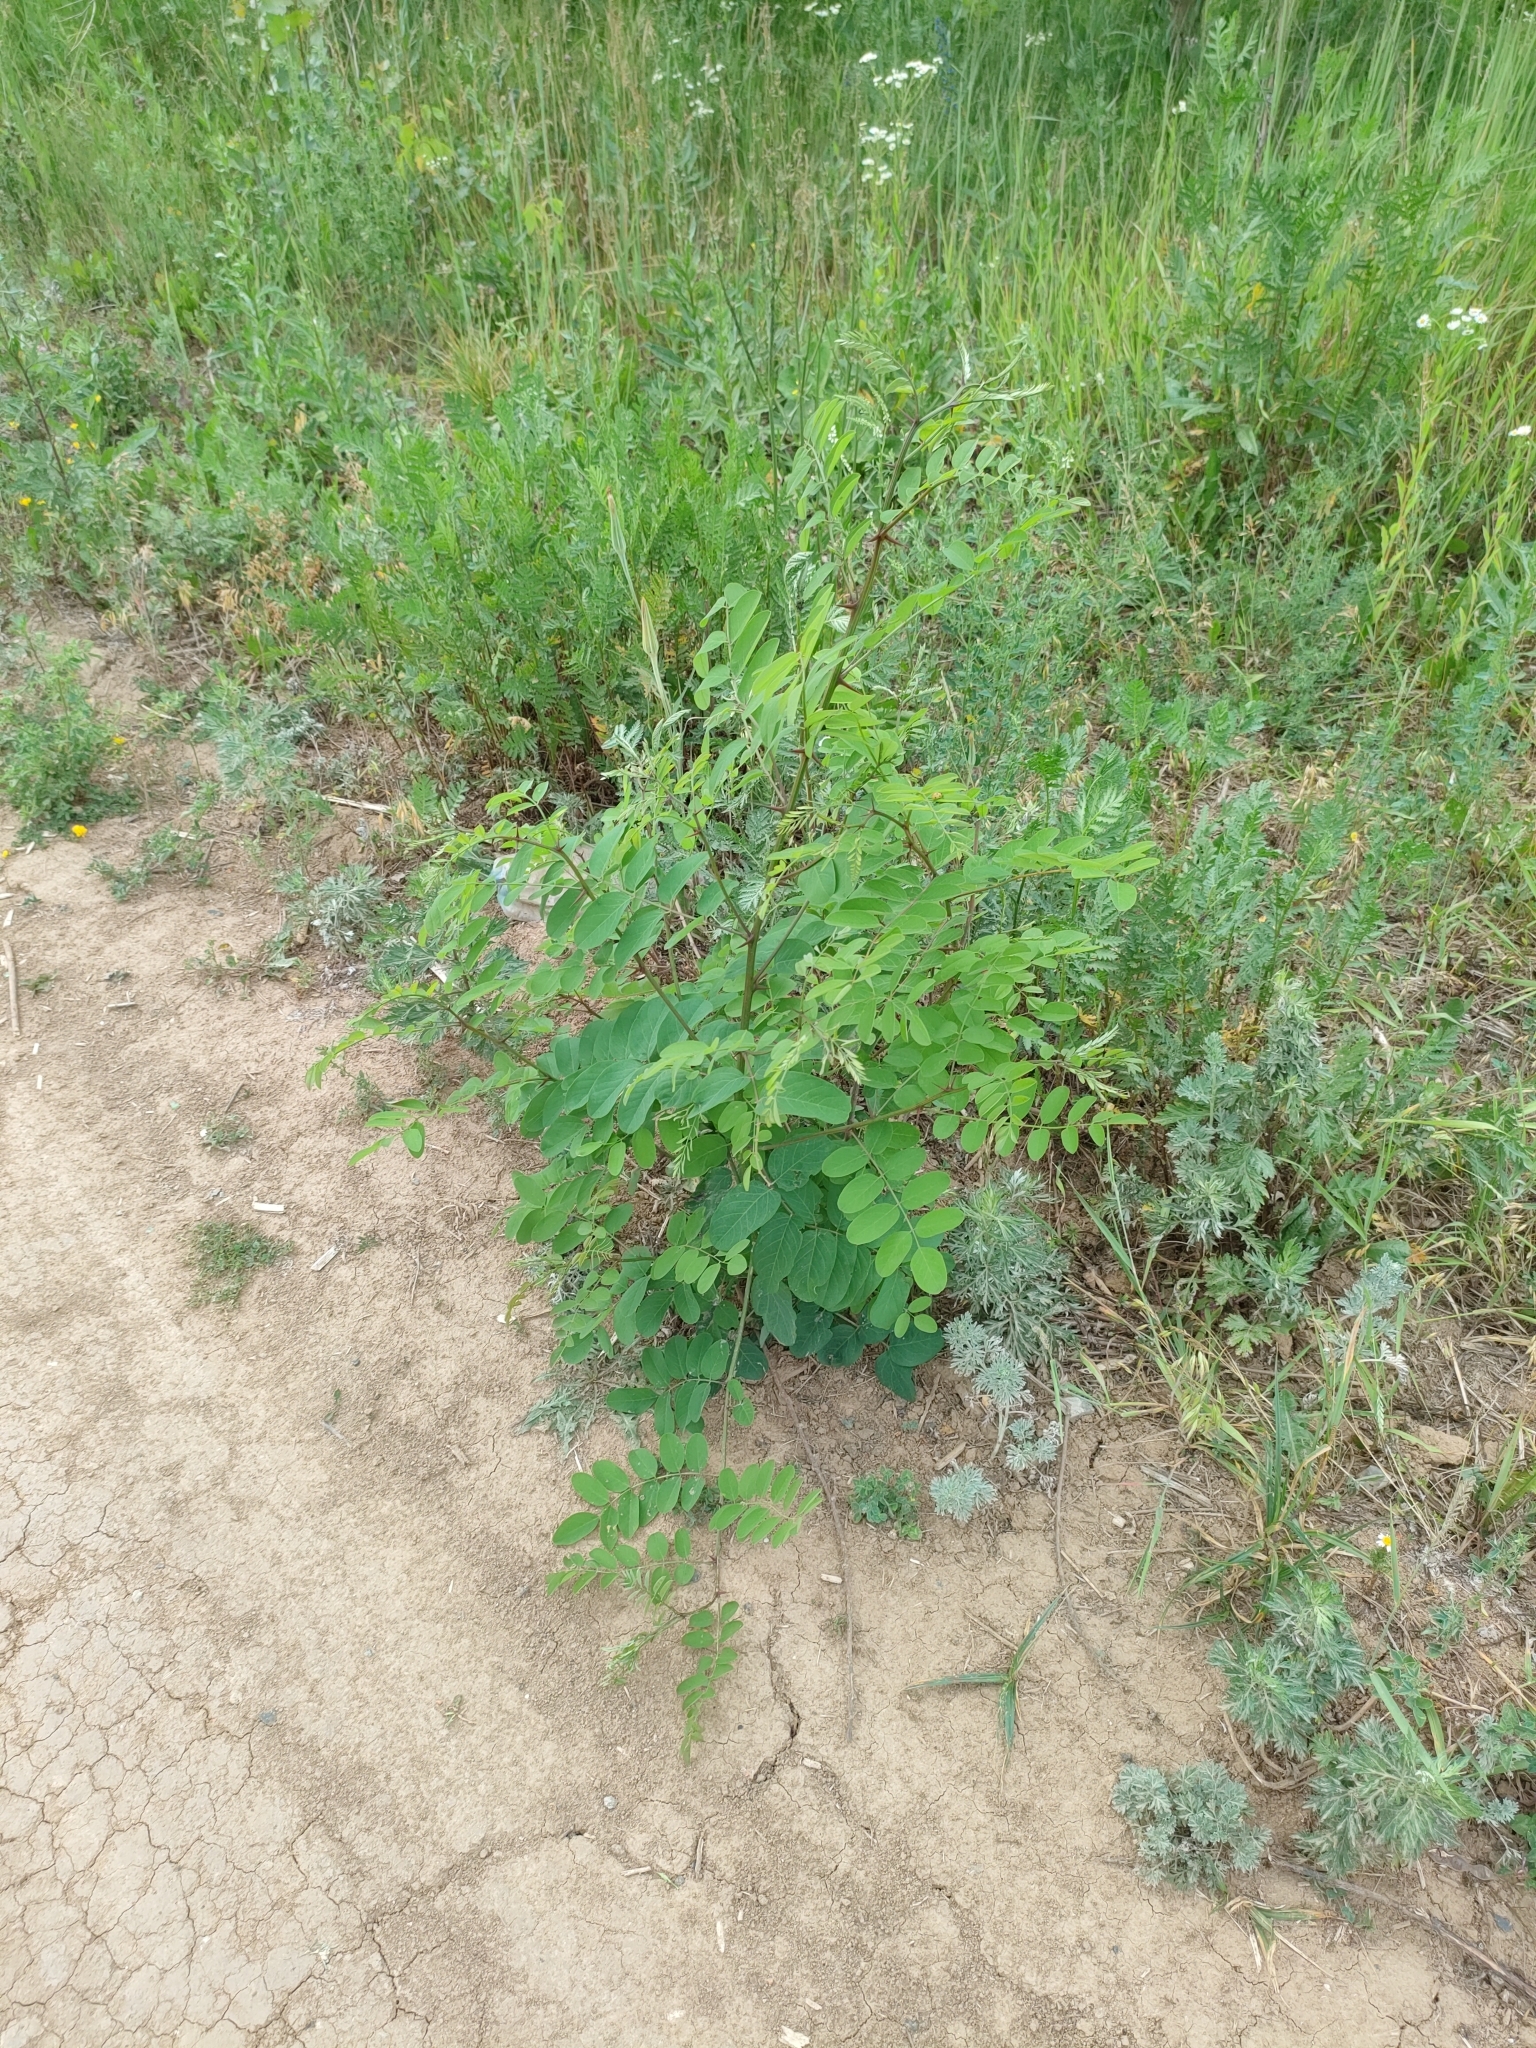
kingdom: Plantae
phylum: Tracheophyta
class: Magnoliopsida
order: Fabales
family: Fabaceae
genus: Robinia
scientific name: Robinia pseudoacacia
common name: Black locust
